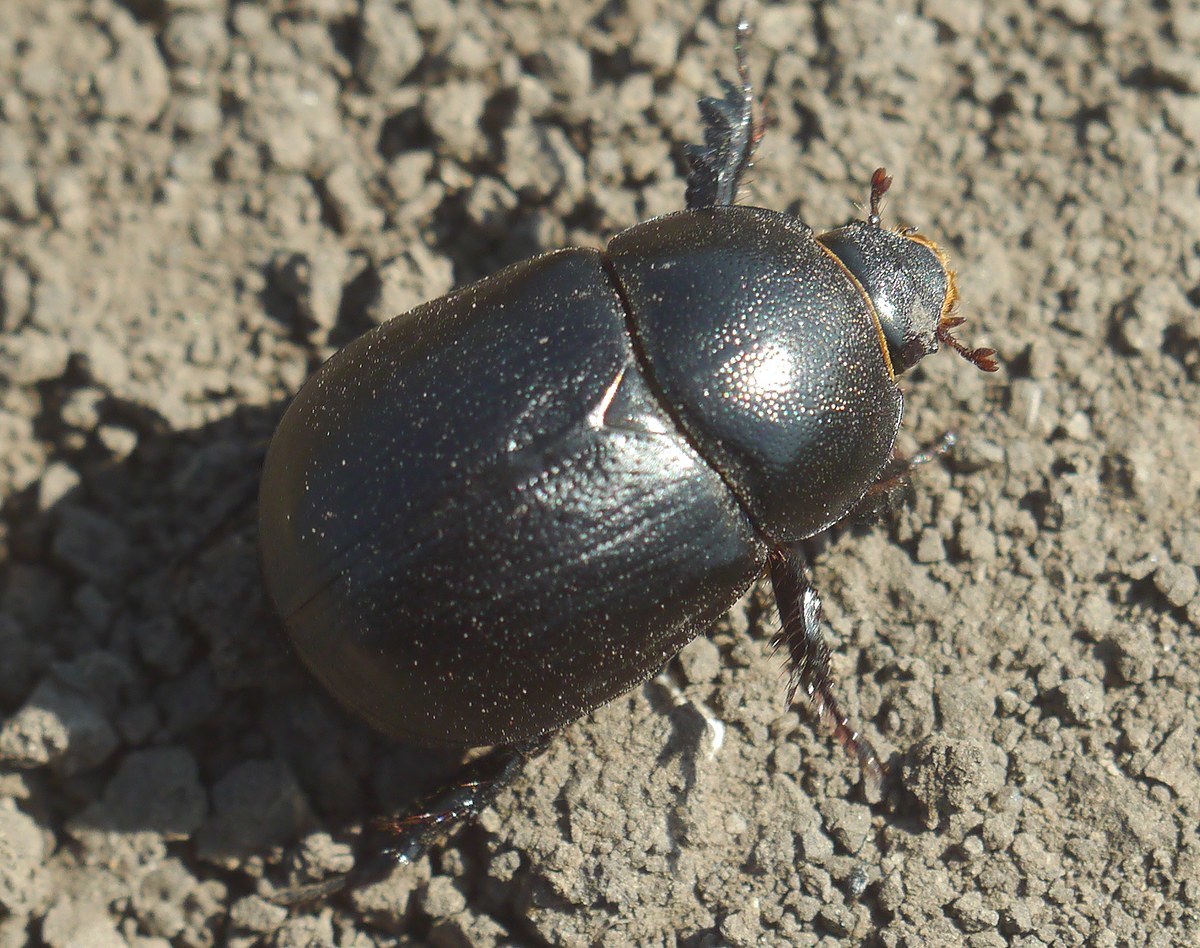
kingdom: Animalia
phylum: Arthropoda
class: Insecta
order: Coleoptera
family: Scarabaeidae
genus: Pentodon
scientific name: Pentodon idiota
